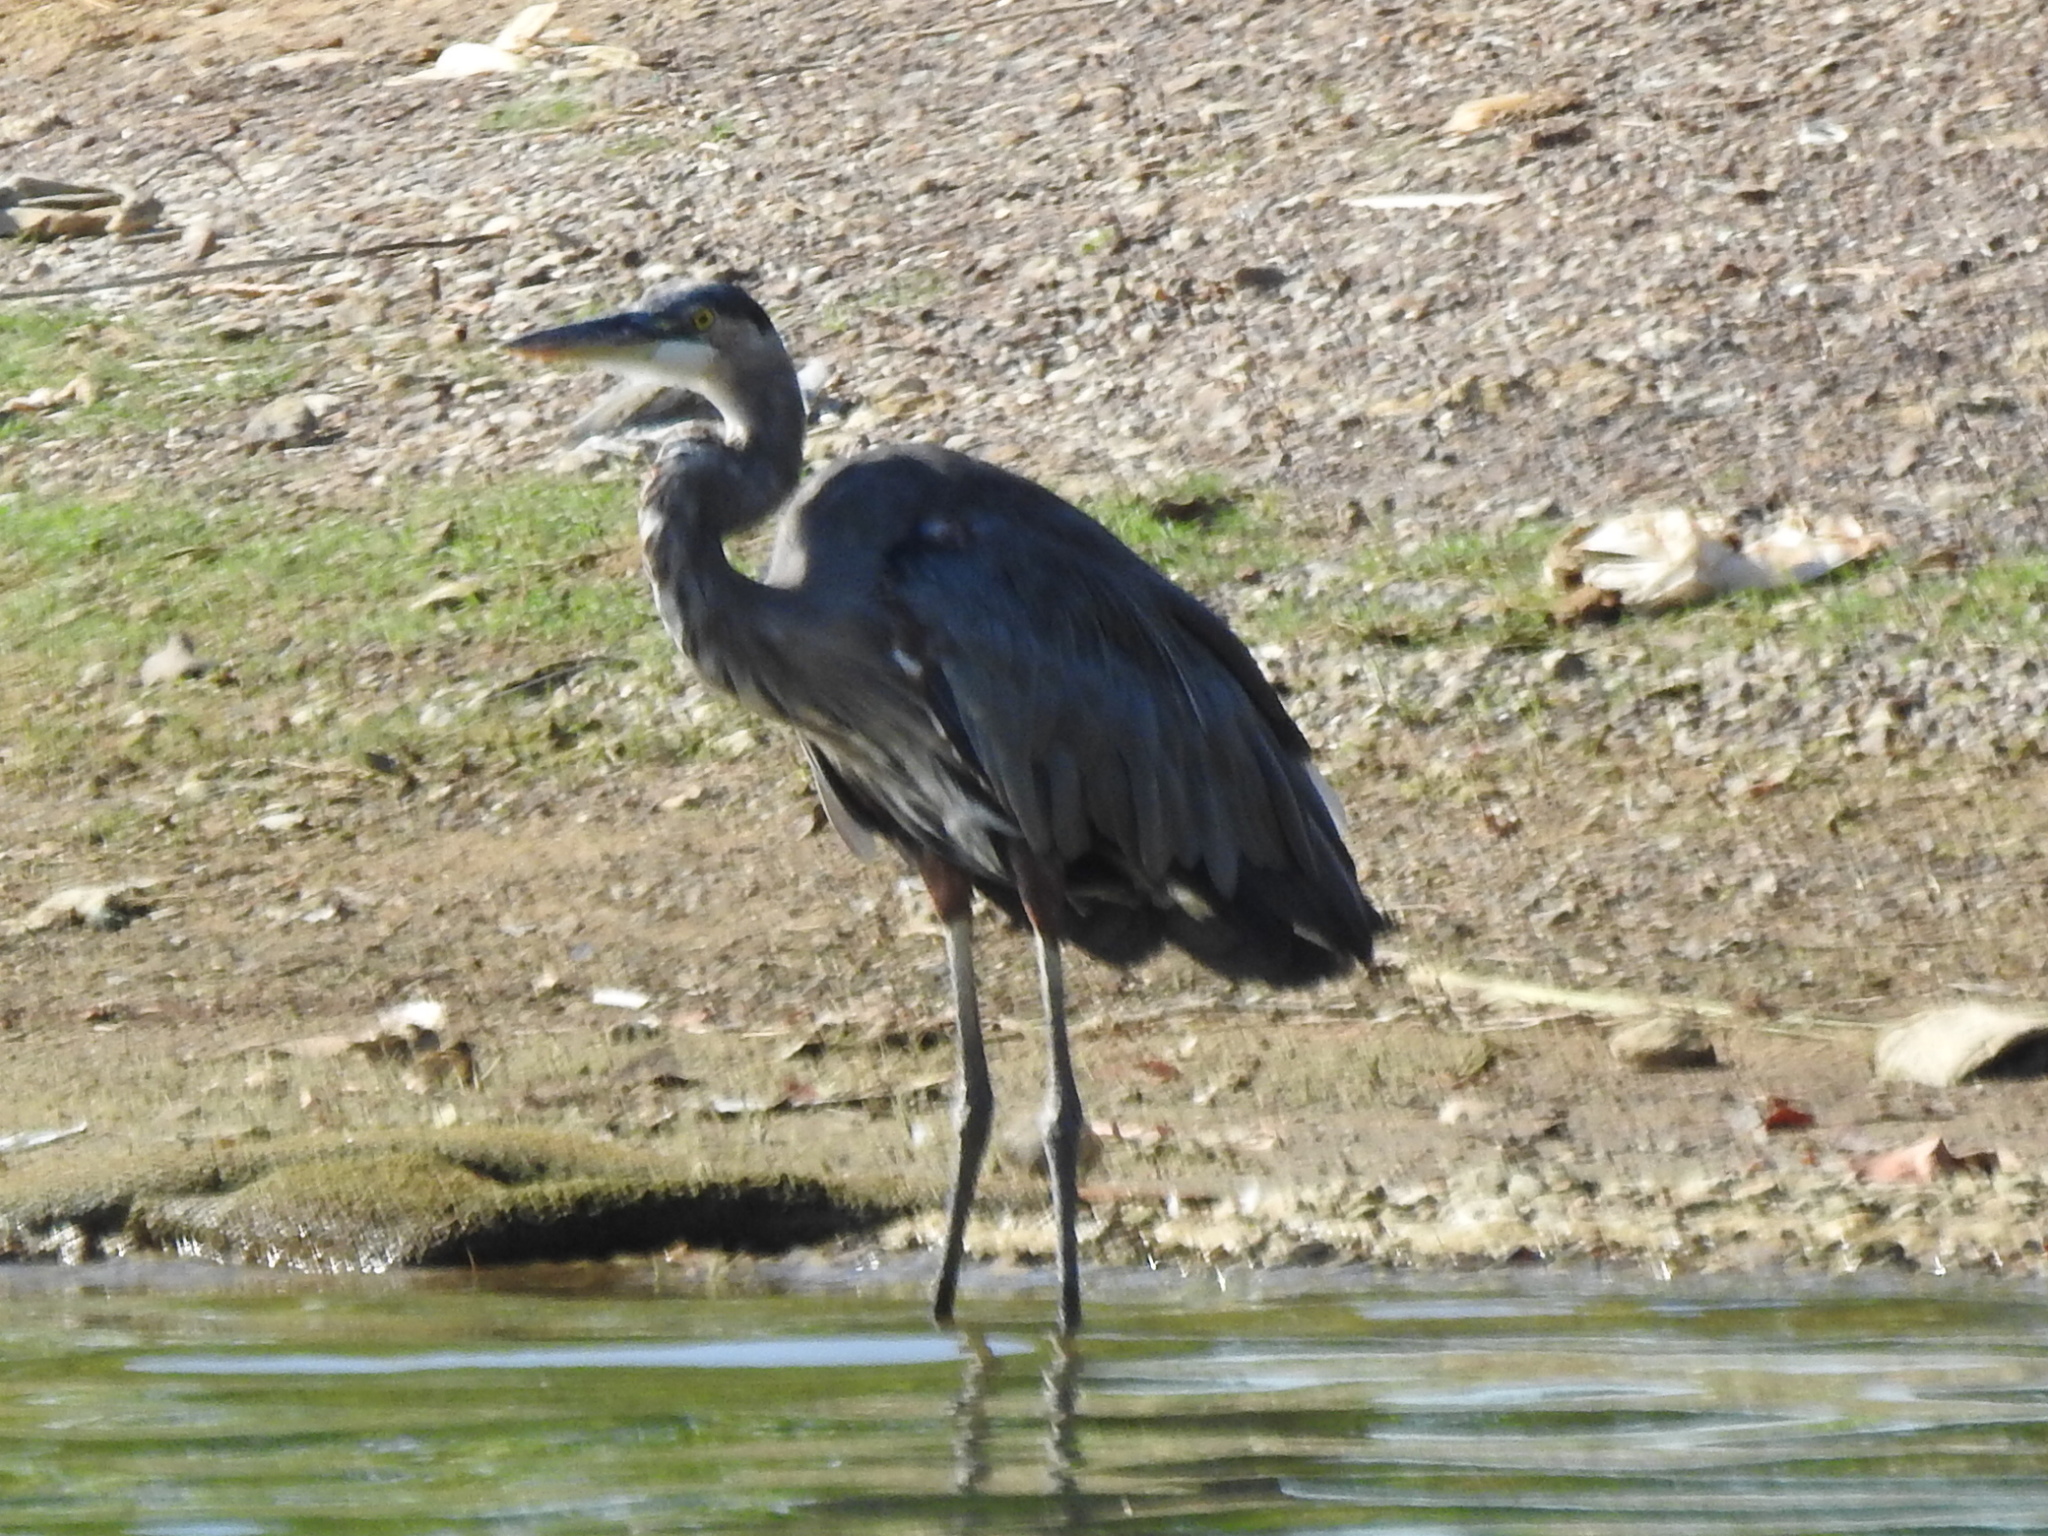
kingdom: Animalia
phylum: Chordata
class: Aves
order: Pelecaniformes
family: Ardeidae
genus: Ardea
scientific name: Ardea herodias
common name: Great blue heron
